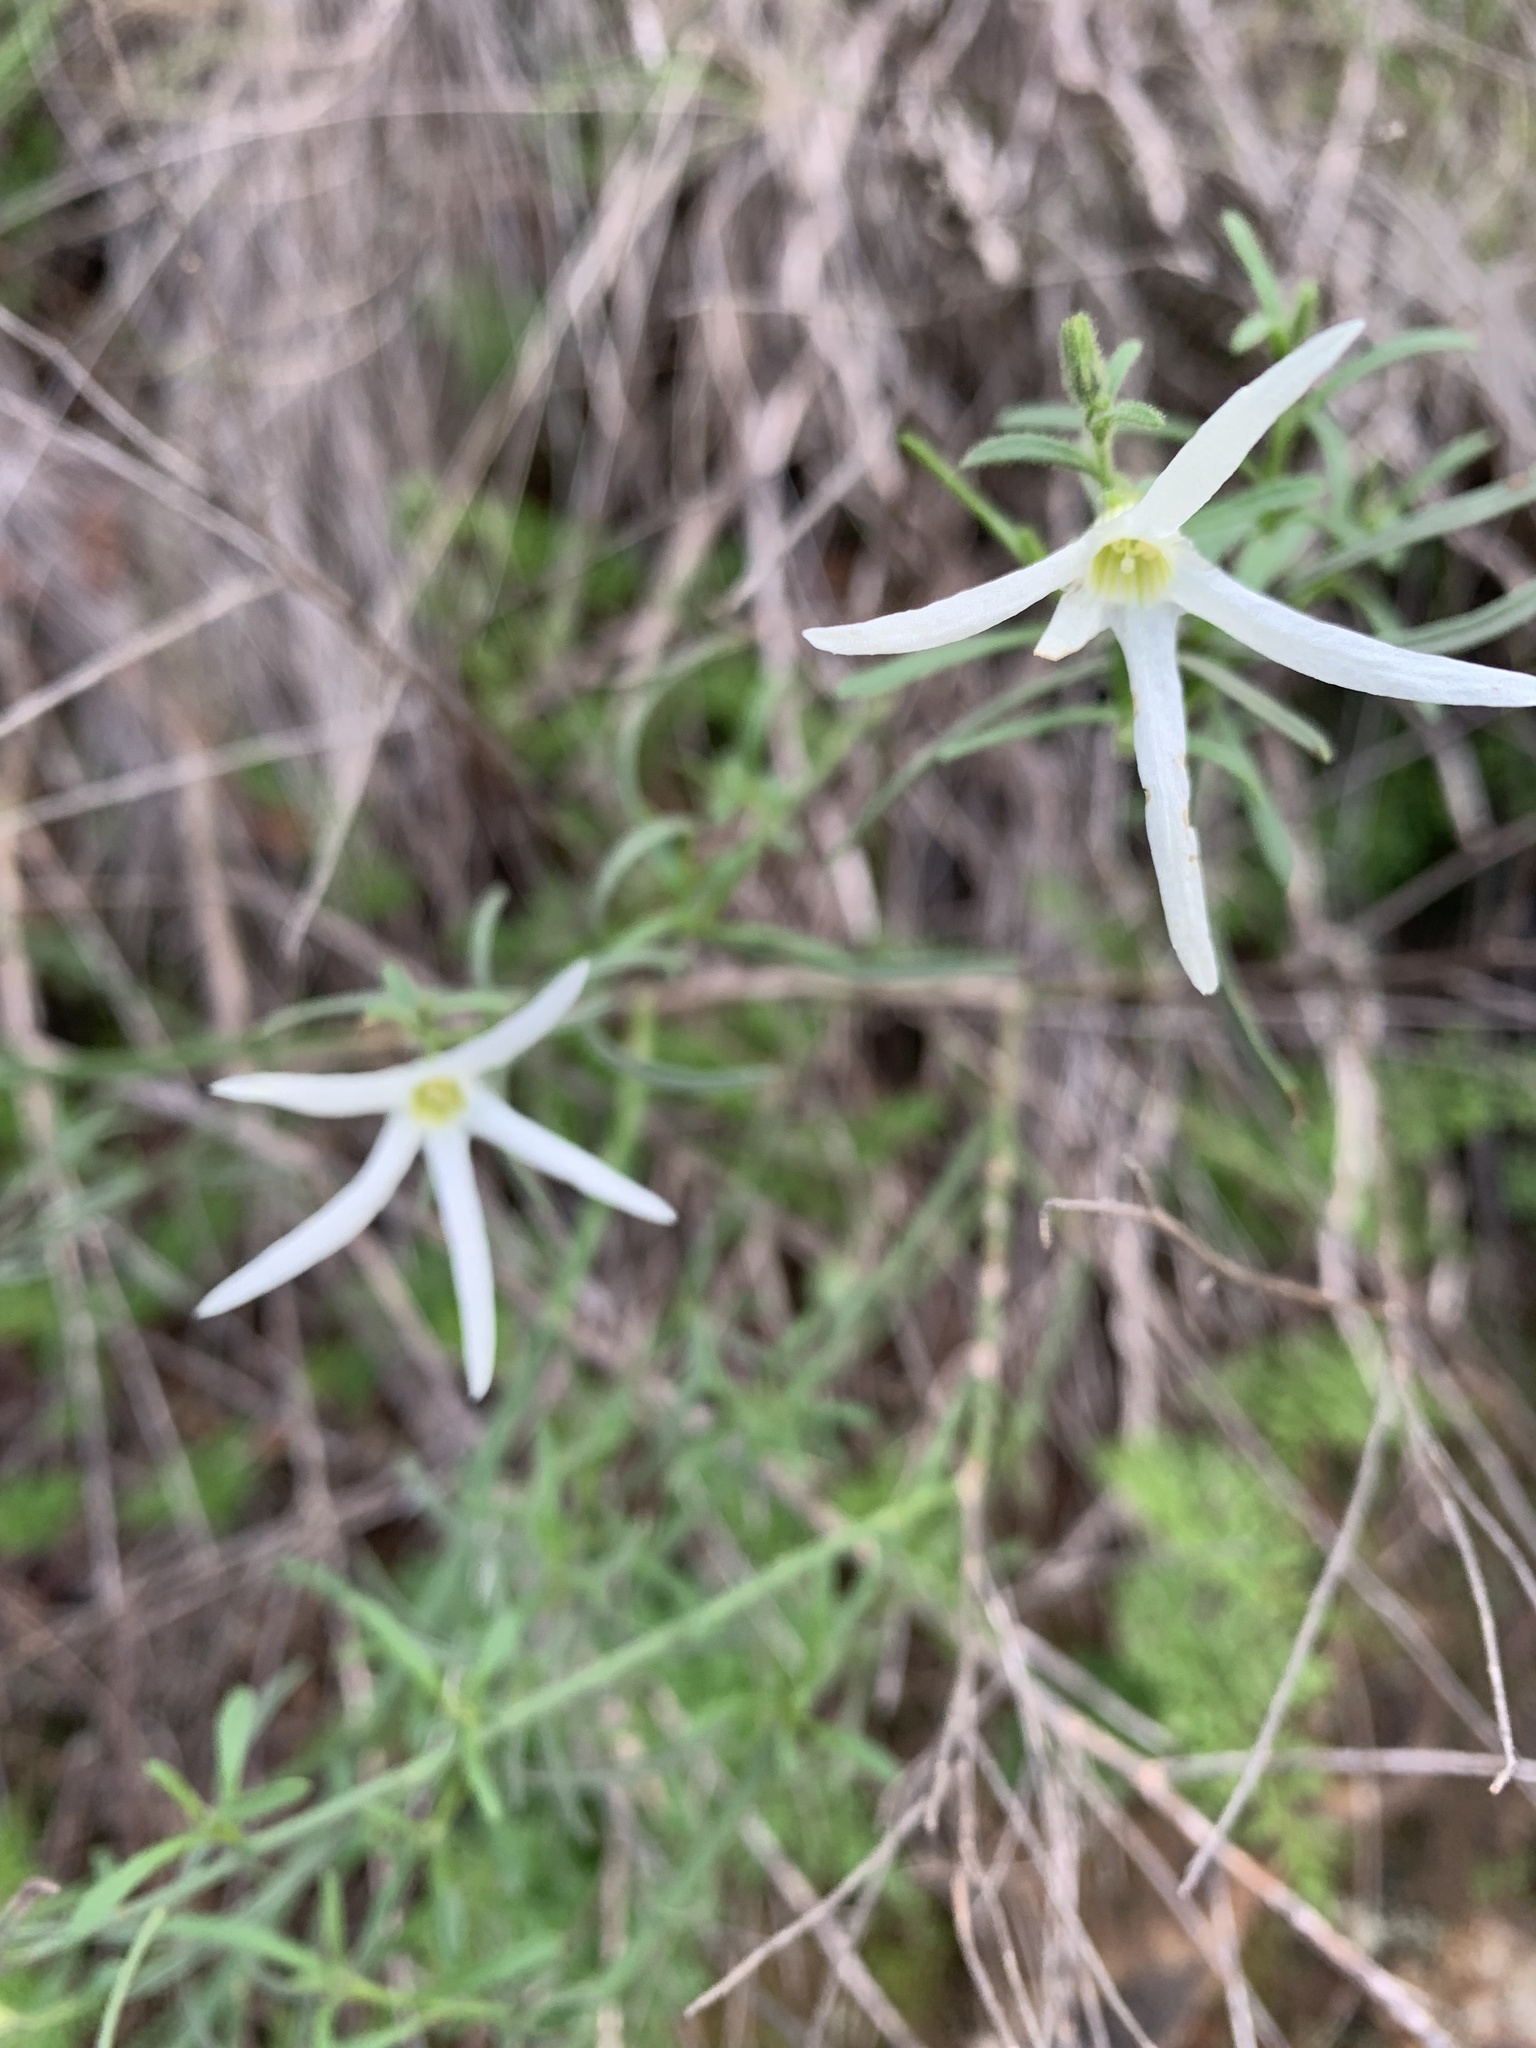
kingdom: Plantae
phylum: Tracheophyta
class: Magnoliopsida
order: Solanales
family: Solanaceae
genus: Anthocercis
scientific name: Anthocercis angustifolia
